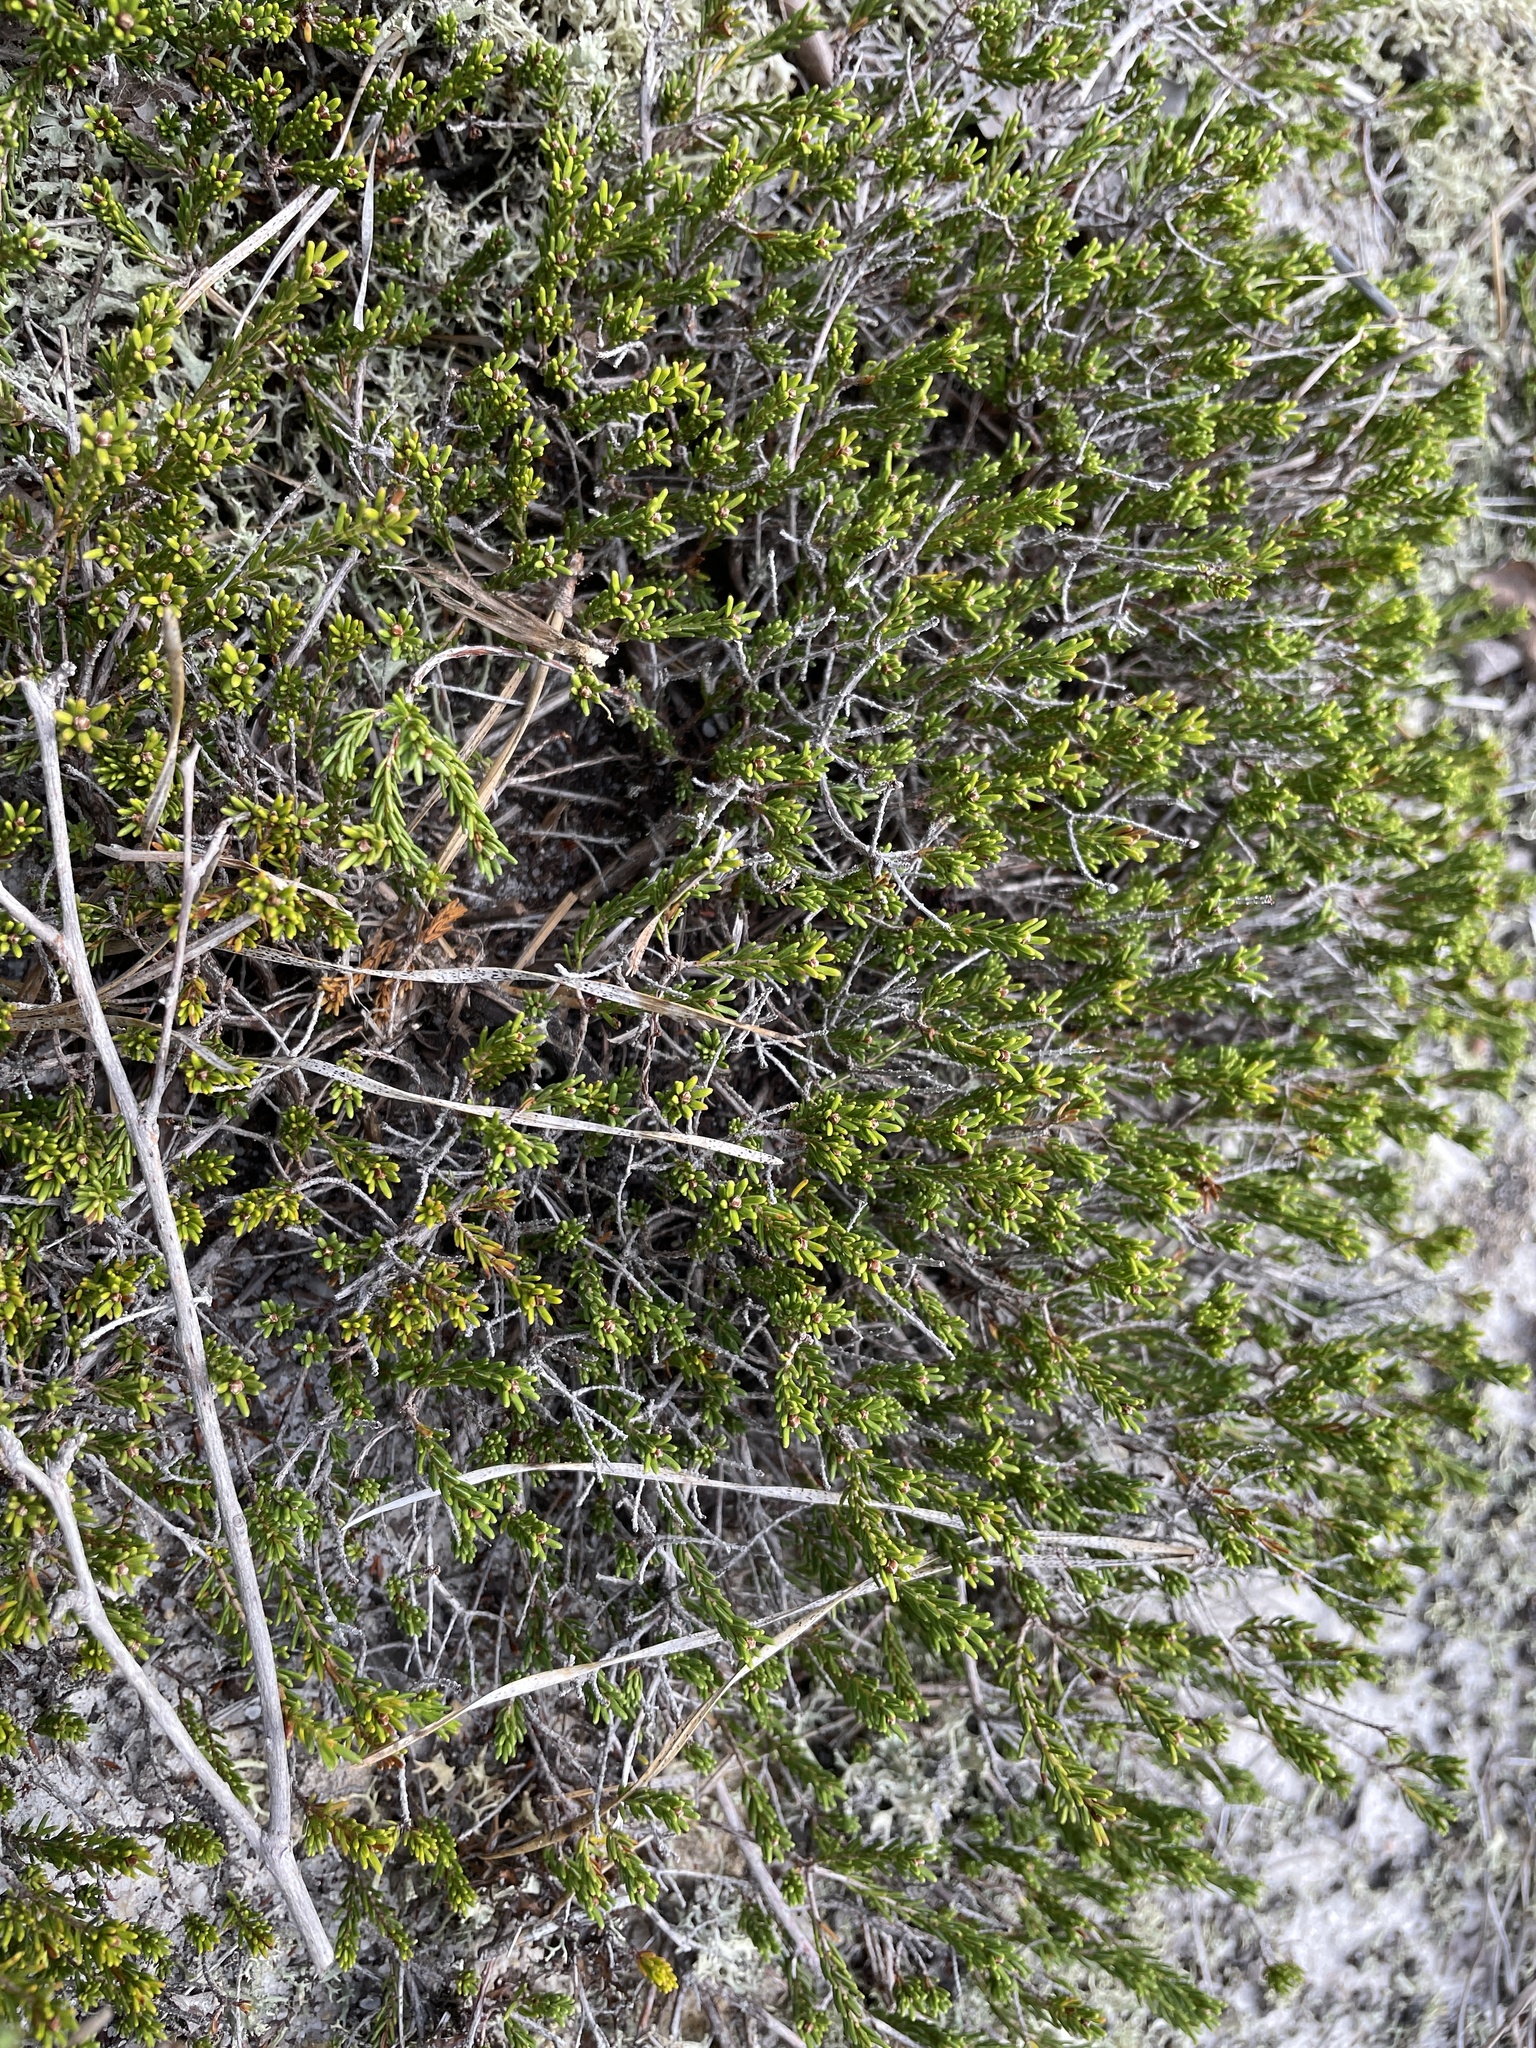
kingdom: Plantae
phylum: Tracheophyta
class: Magnoliopsida
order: Ericales
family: Ericaceae
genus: Corema
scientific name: Corema conradii
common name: Broom-crowberry
